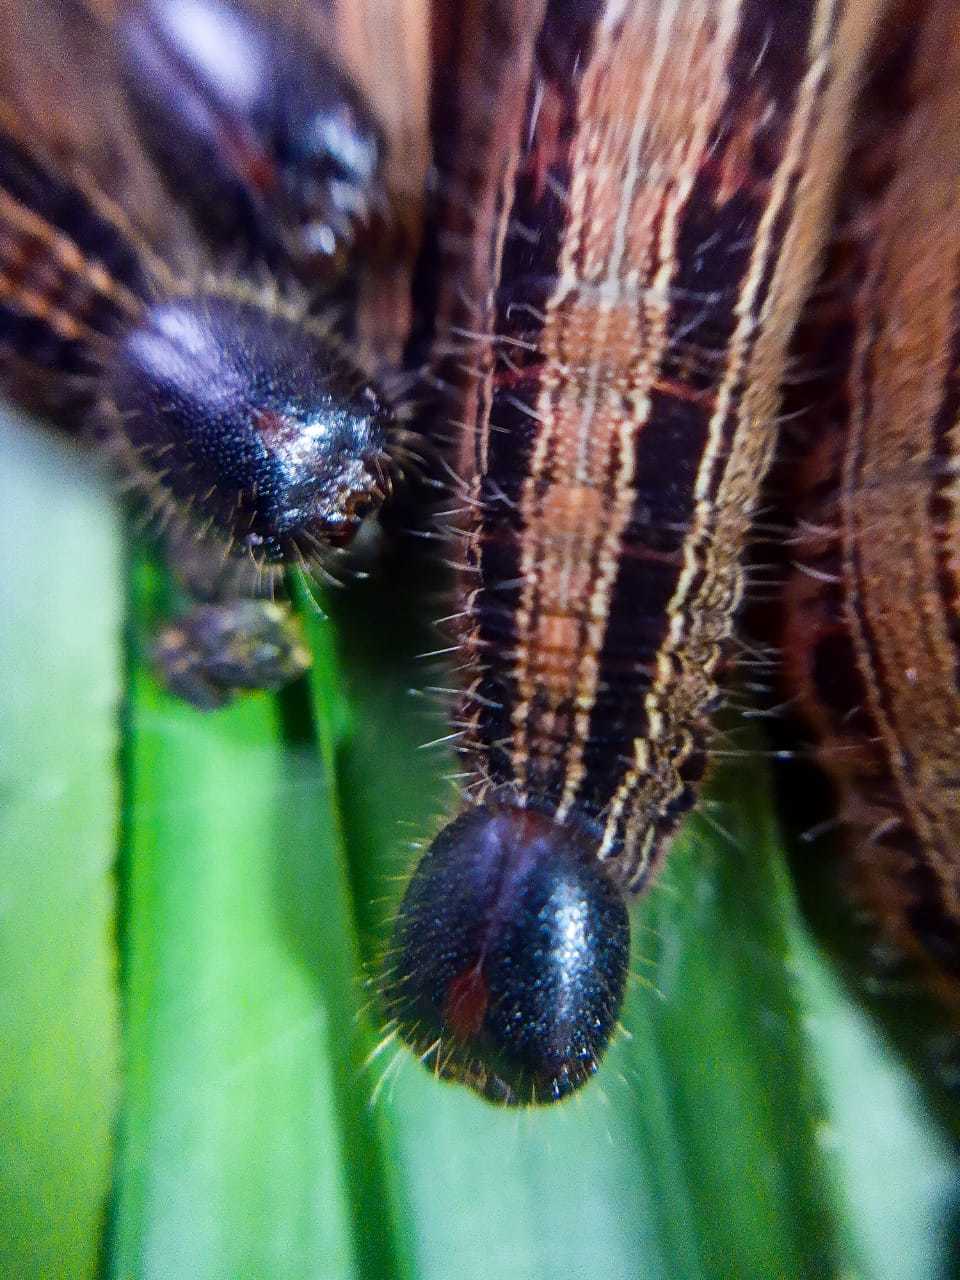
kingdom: Animalia
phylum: Arthropoda
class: Insecta
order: Lepidoptera
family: Nymphalidae
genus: Brassolis
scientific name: Brassolis sophorae
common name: Coconut caterpillar
